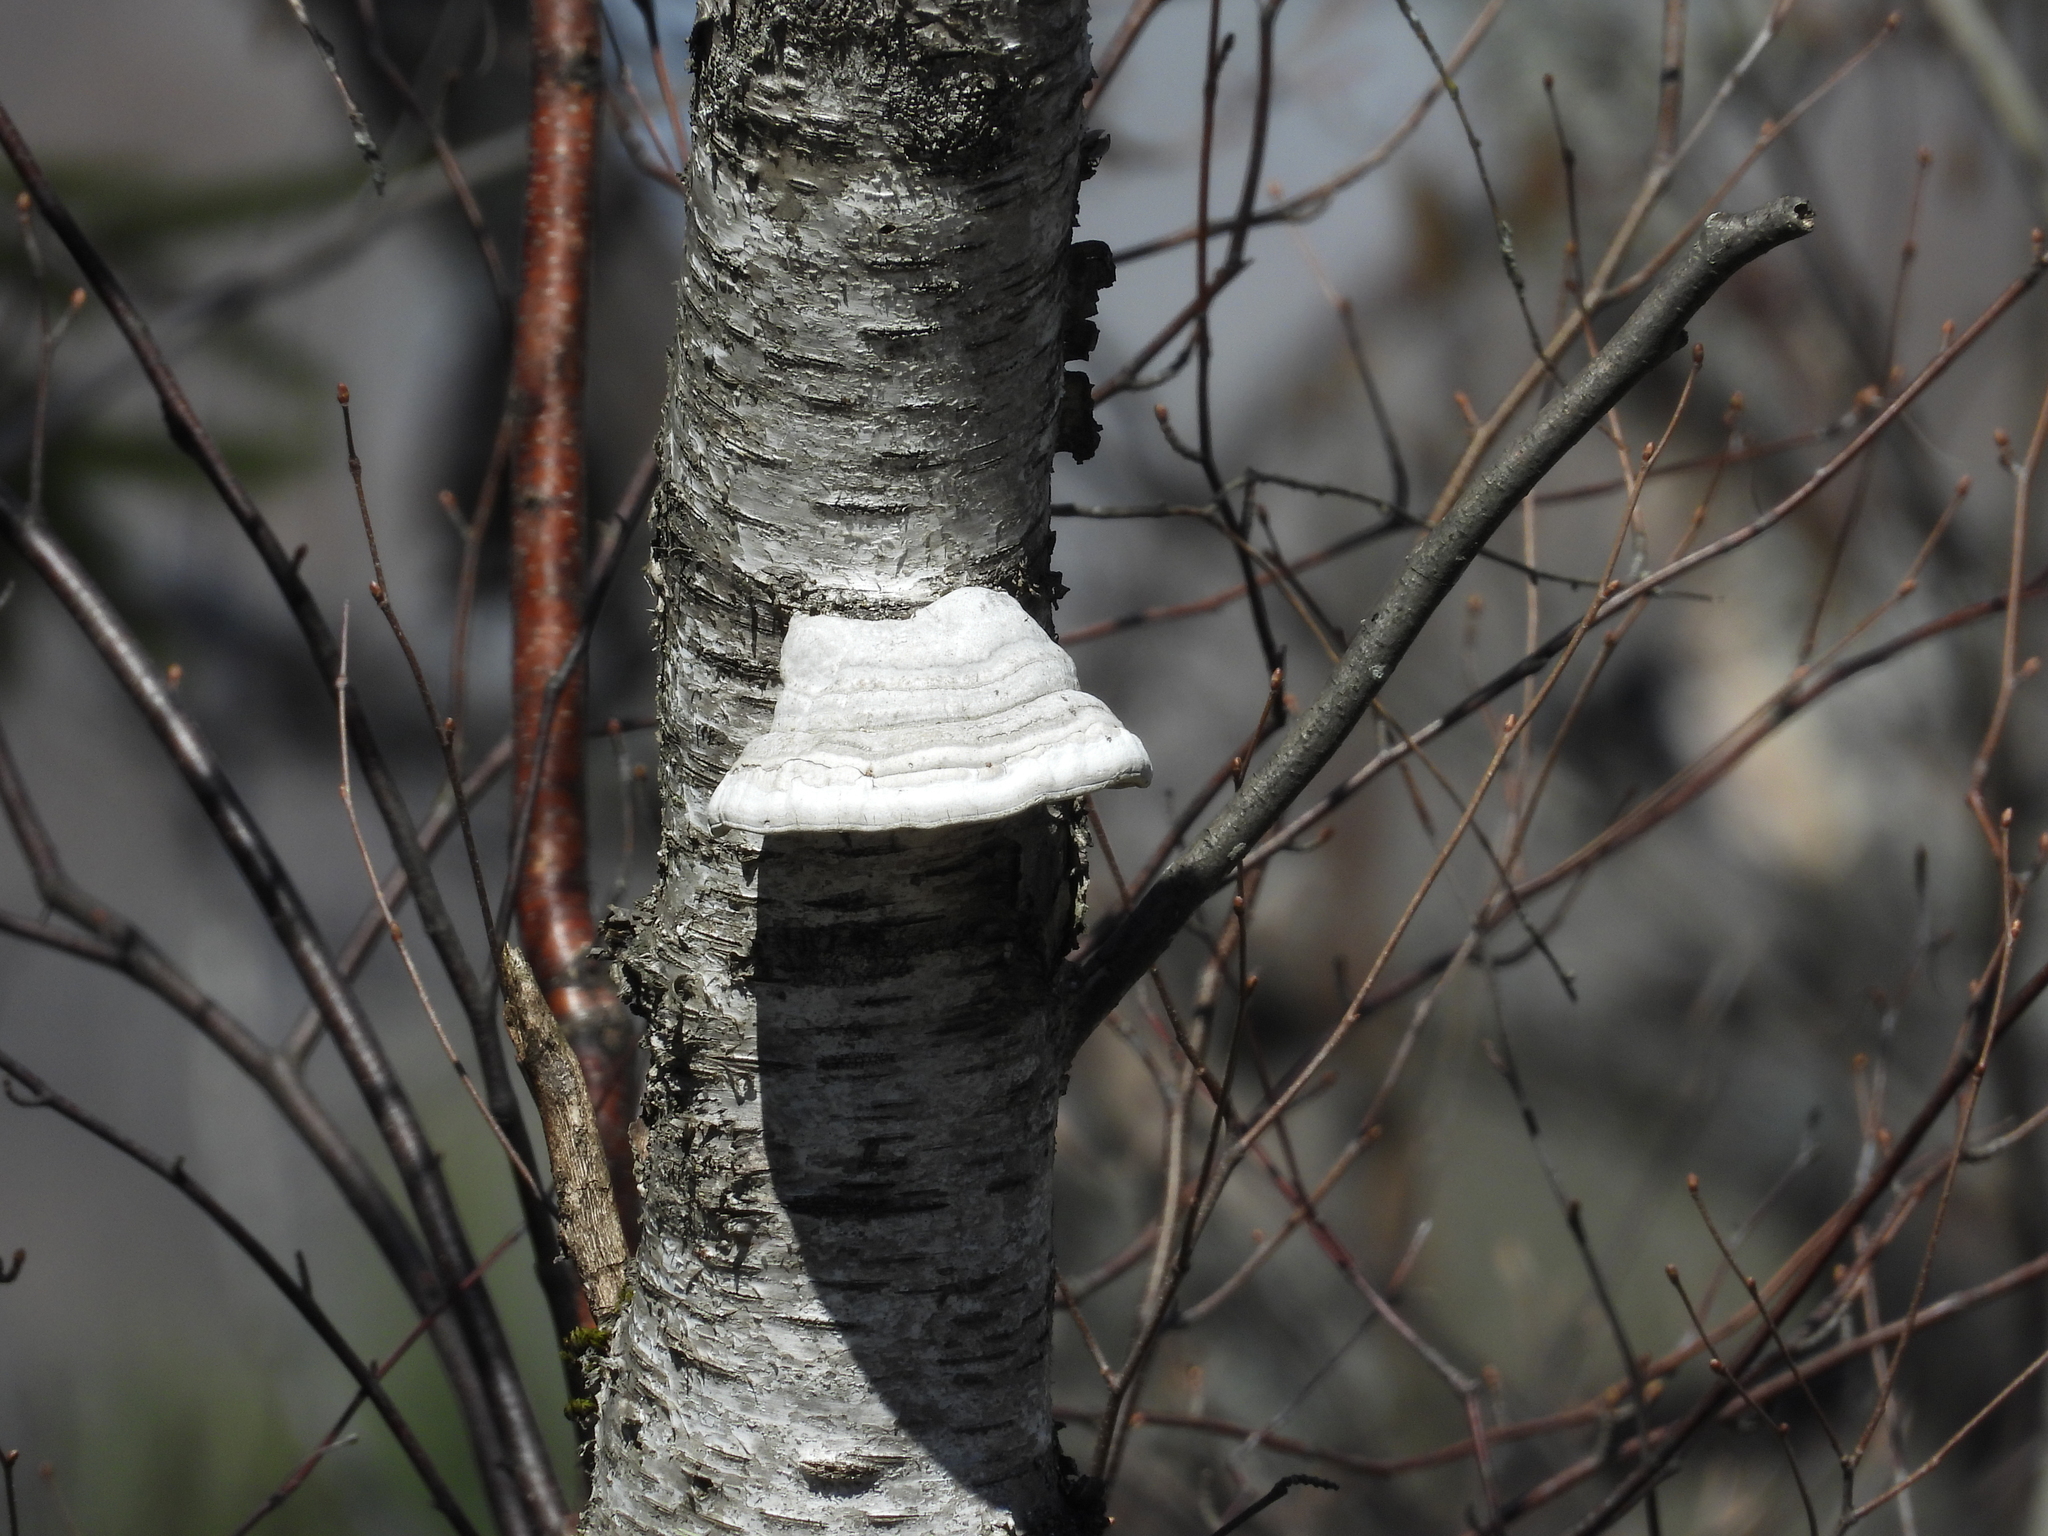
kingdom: Fungi
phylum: Basidiomycota
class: Agaricomycetes
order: Polyporales
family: Polyporaceae
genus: Fomes
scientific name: Fomes fomentarius
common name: Hoof fungus
